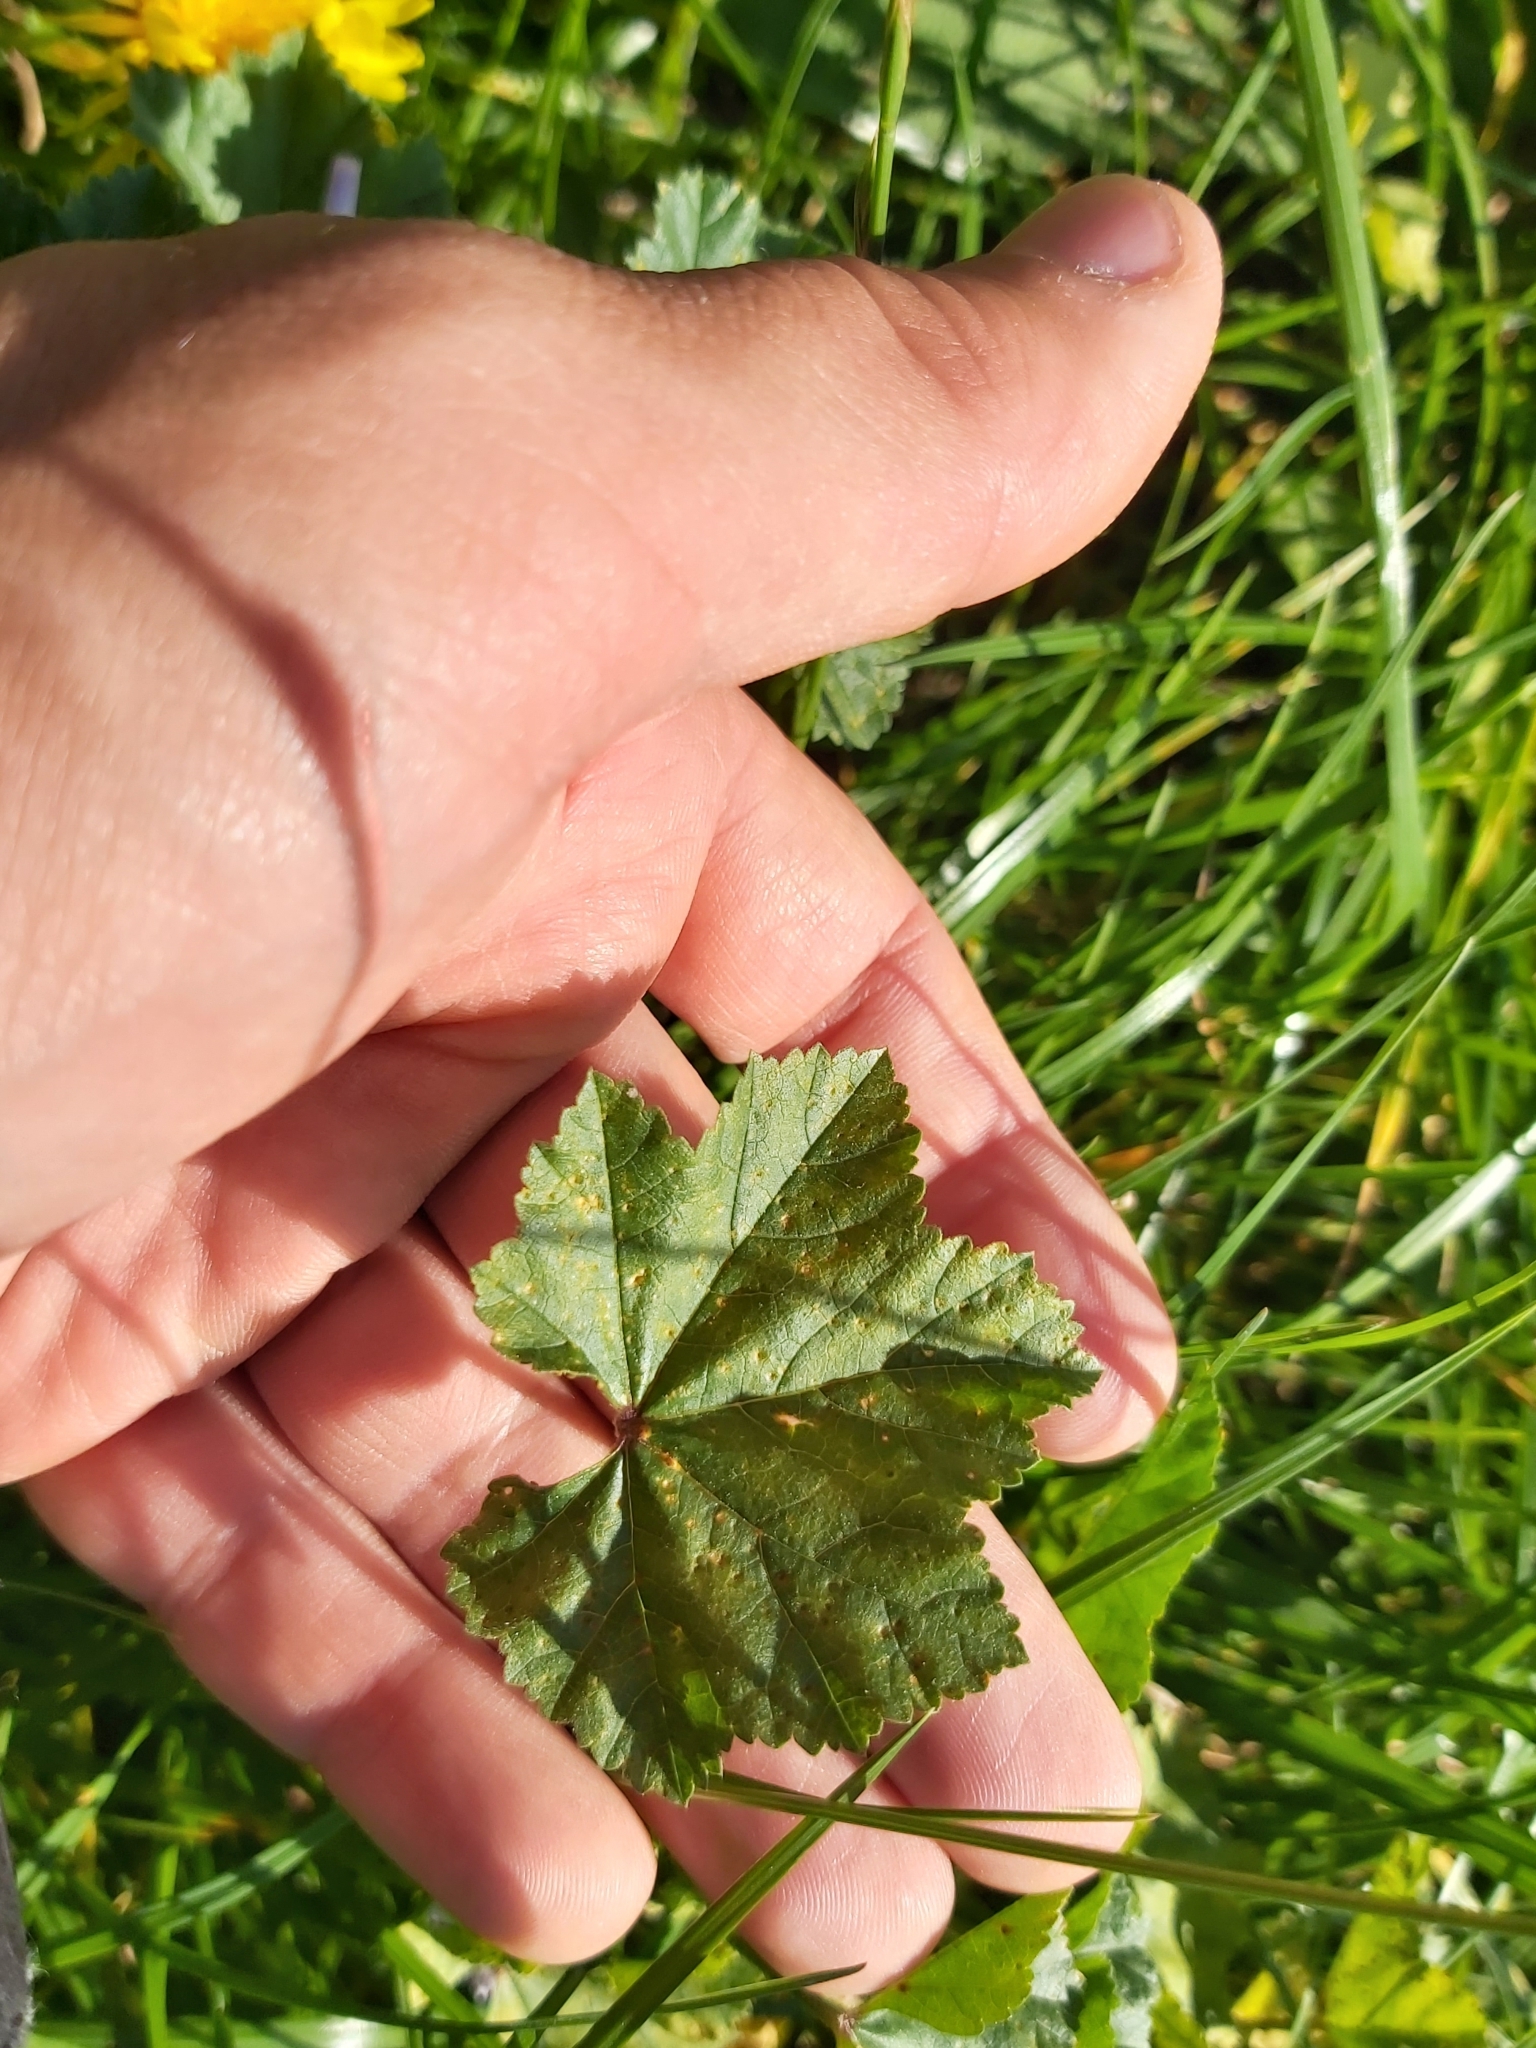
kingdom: Plantae
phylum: Tracheophyta
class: Magnoliopsida
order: Malvales
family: Malvaceae
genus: Malva
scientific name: Malva neglecta
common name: Common mallow
